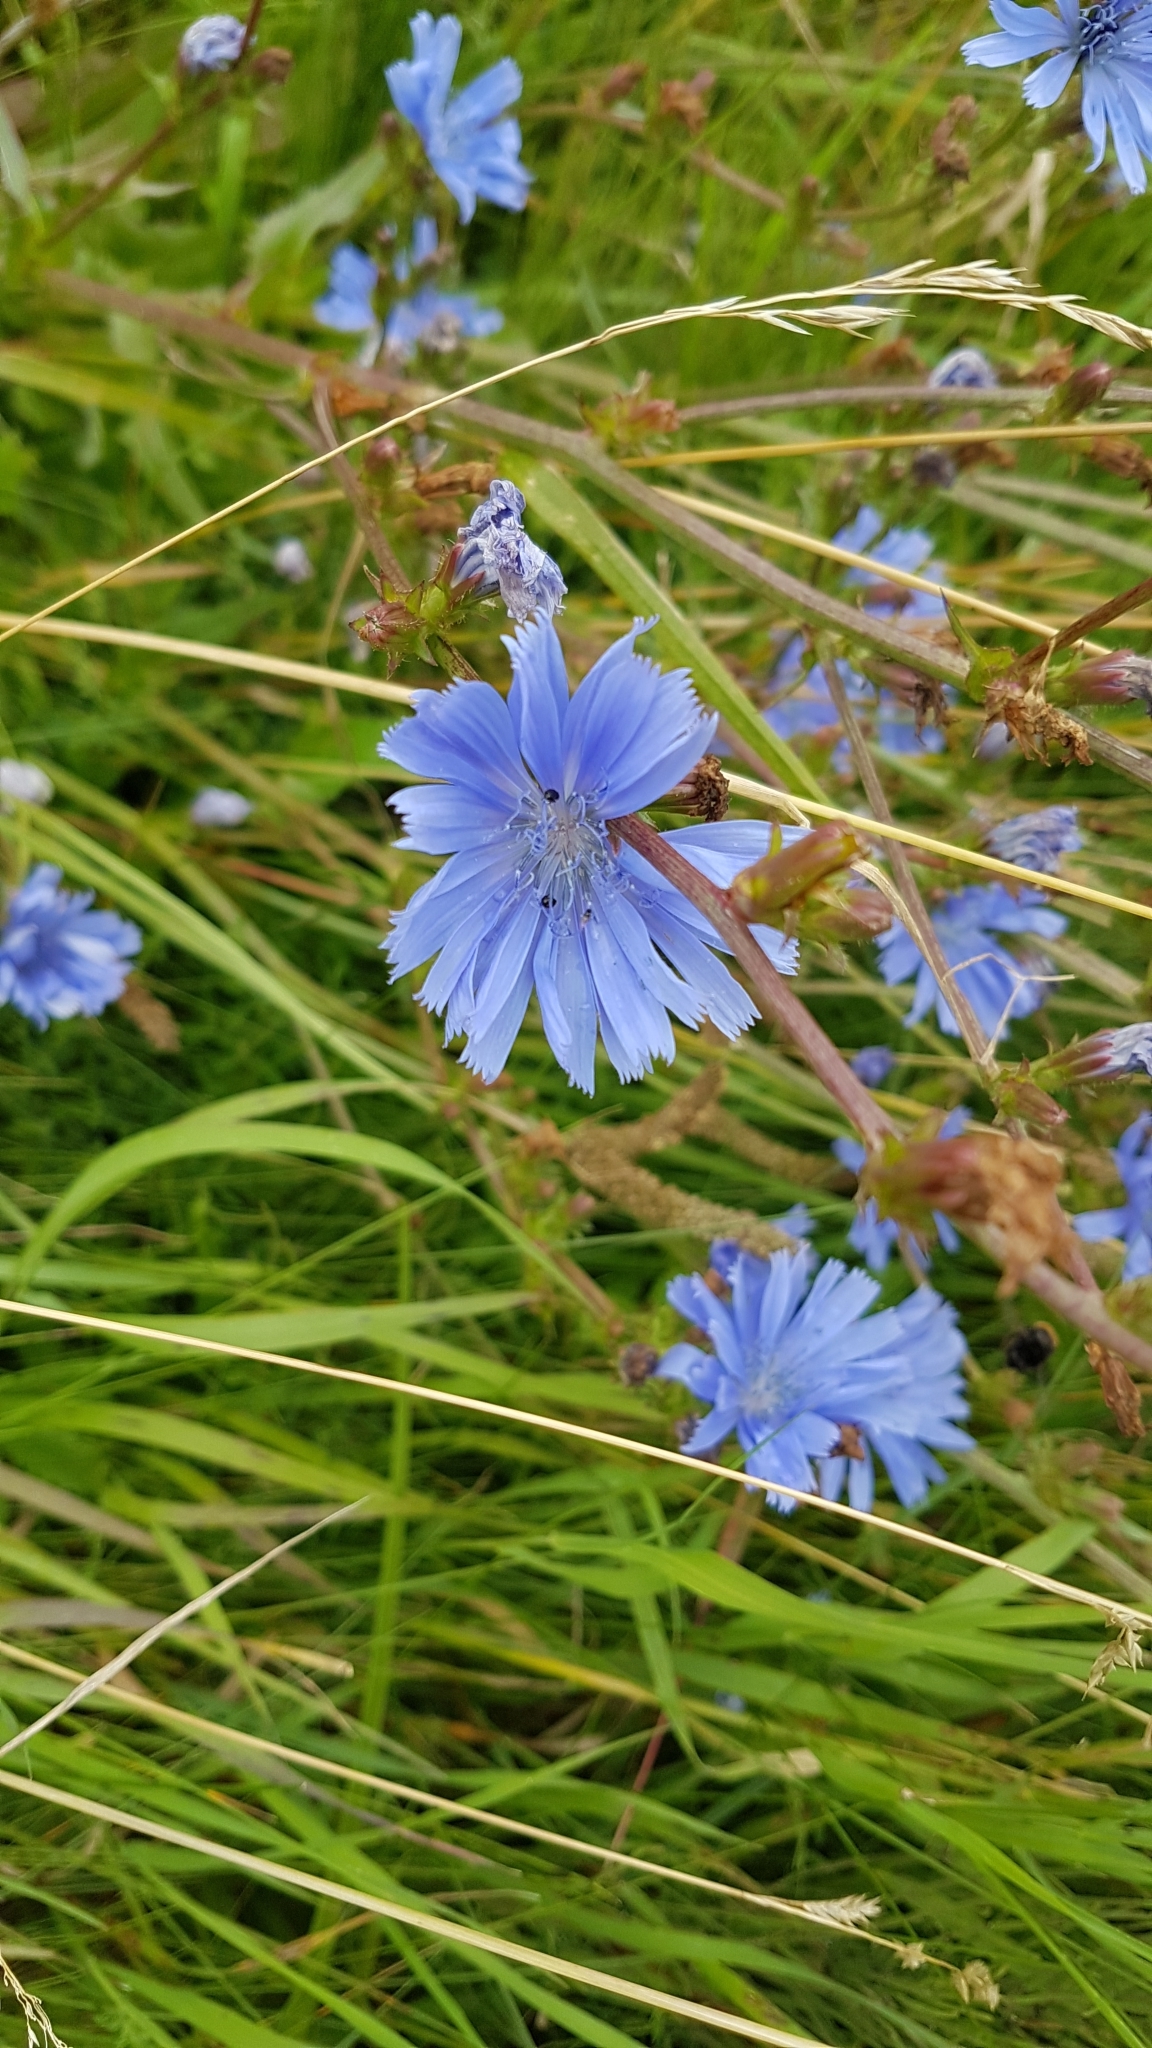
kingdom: Plantae
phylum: Tracheophyta
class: Magnoliopsida
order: Asterales
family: Asteraceae
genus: Cichorium
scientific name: Cichorium intybus
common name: Chicory
